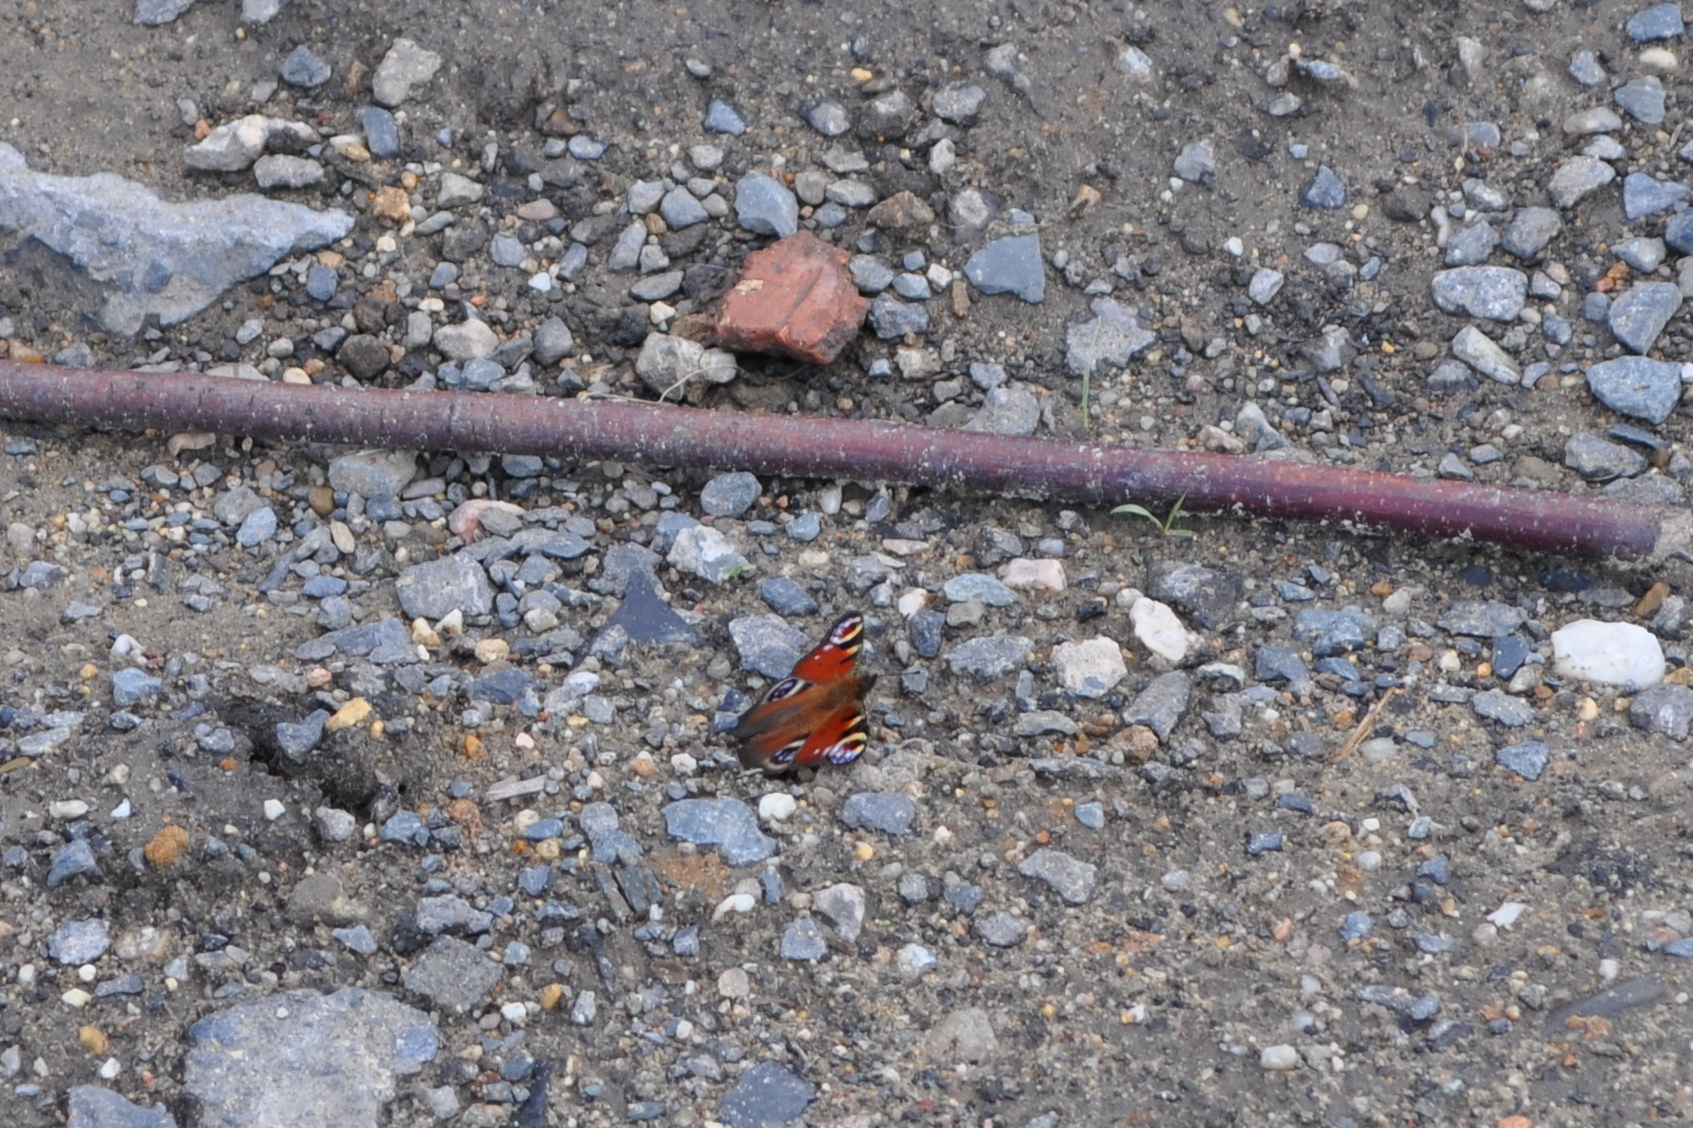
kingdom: Animalia
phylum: Arthropoda
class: Insecta
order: Lepidoptera
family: Nymphalidae
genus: Aglais
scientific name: Aglais io
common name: Peacock
